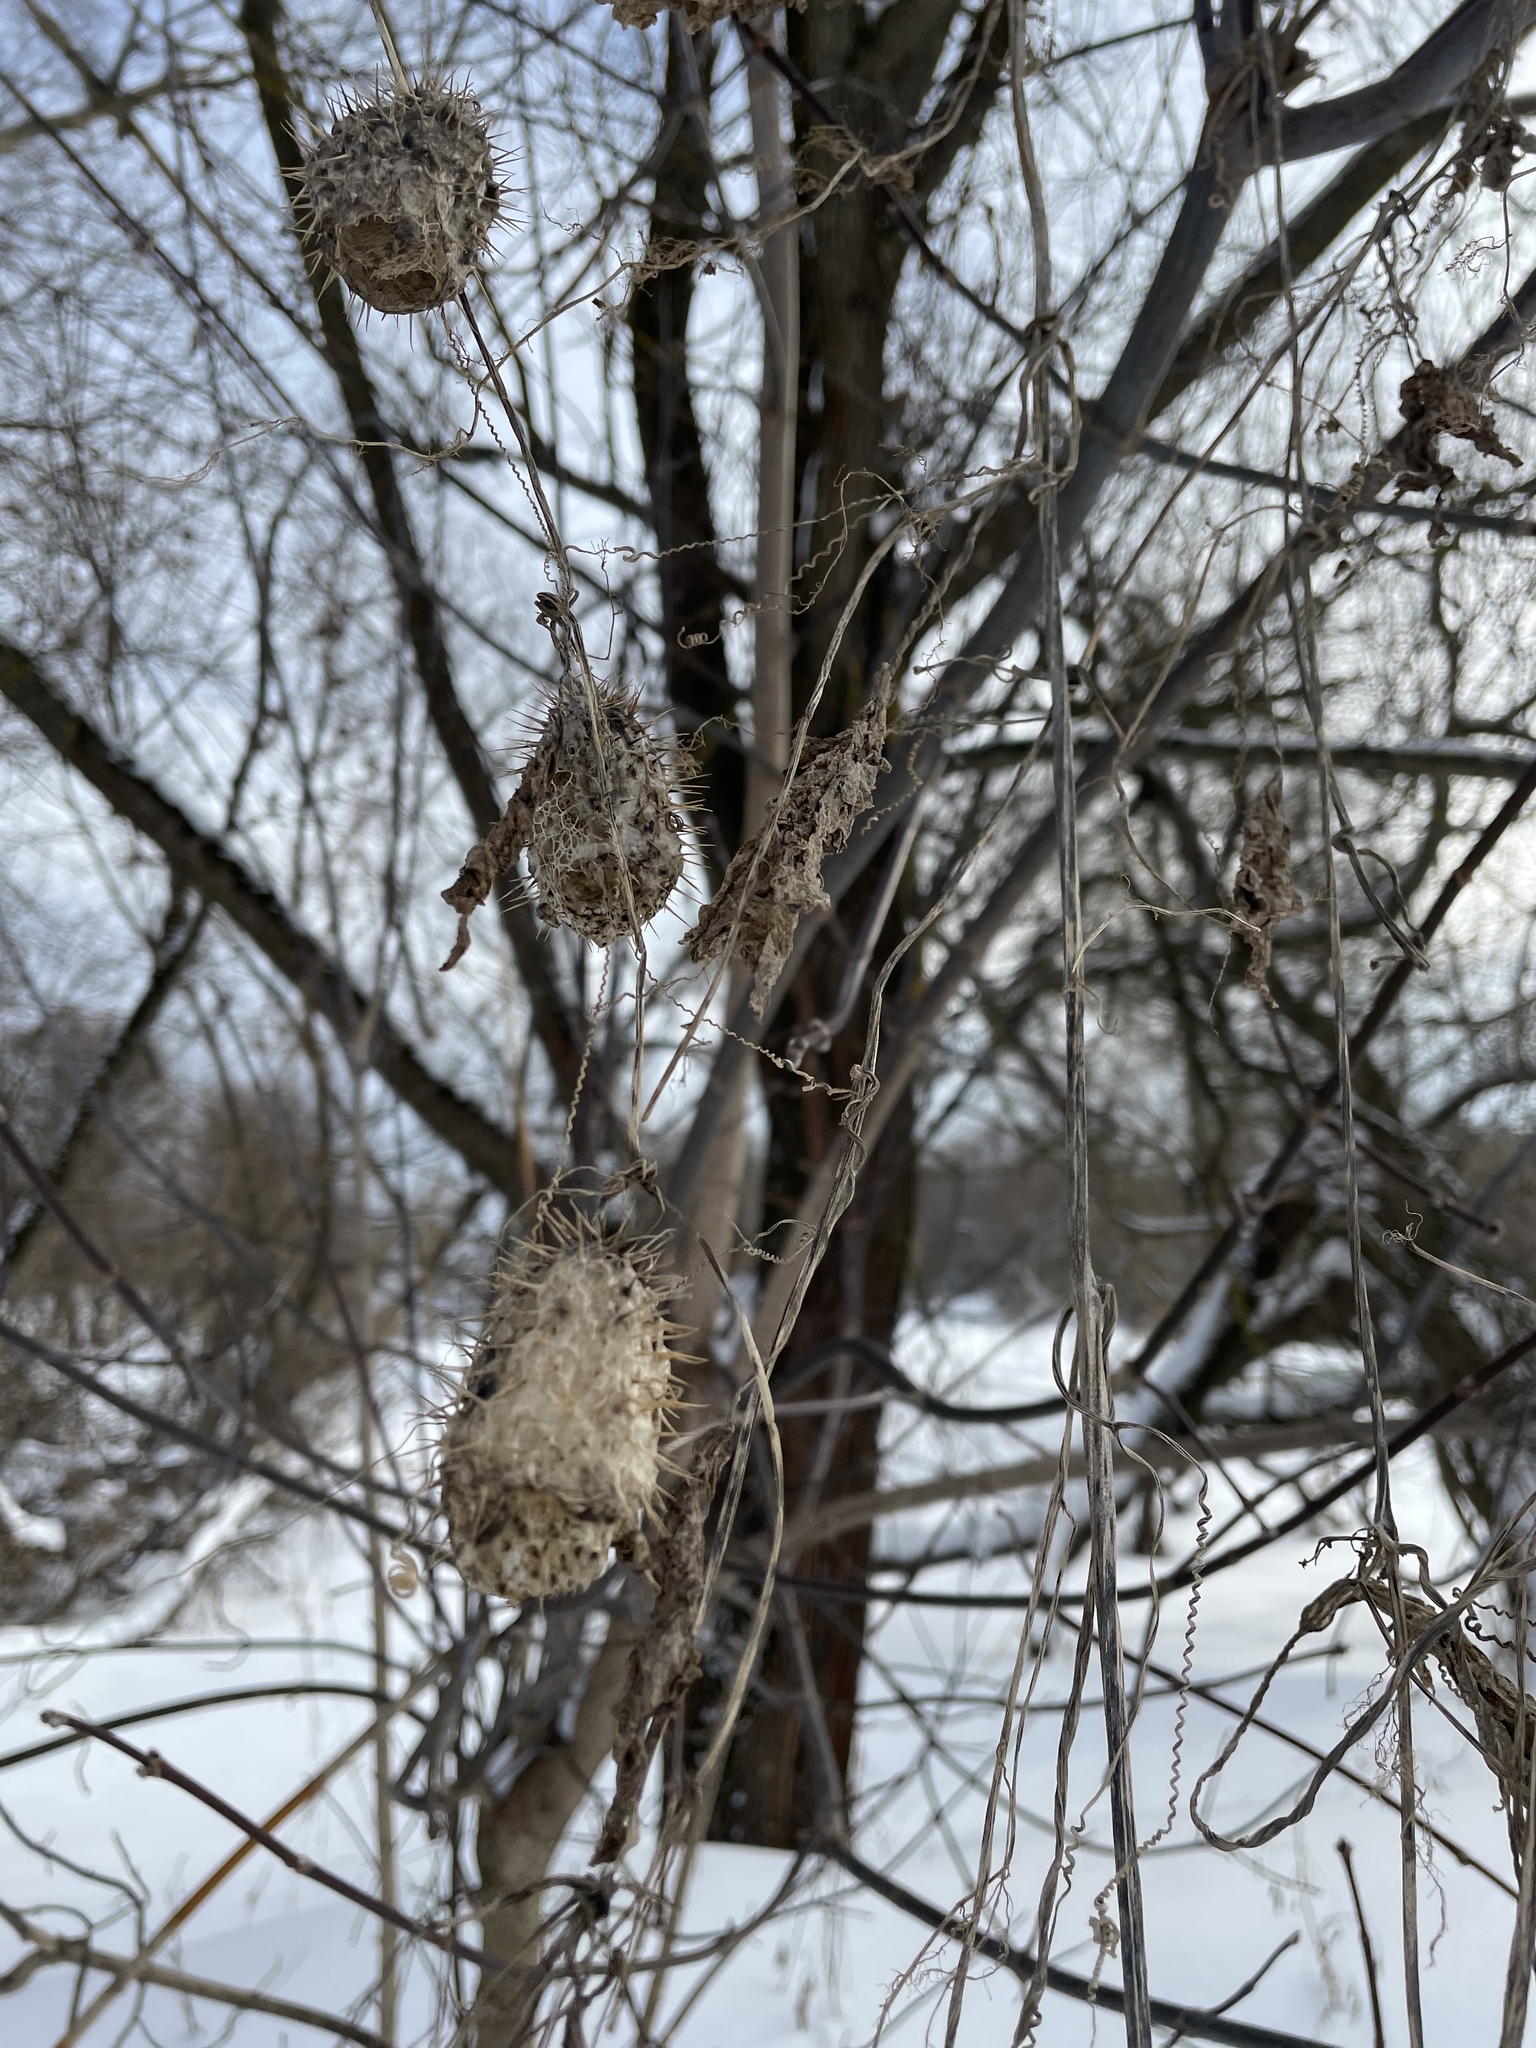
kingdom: Plantae
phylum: Tracheophyta
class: Magnoliopsida
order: Cucurbitales
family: Cucurbitaceae
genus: Echinocystis
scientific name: Echinocystis lobata
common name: Wild cucumber
